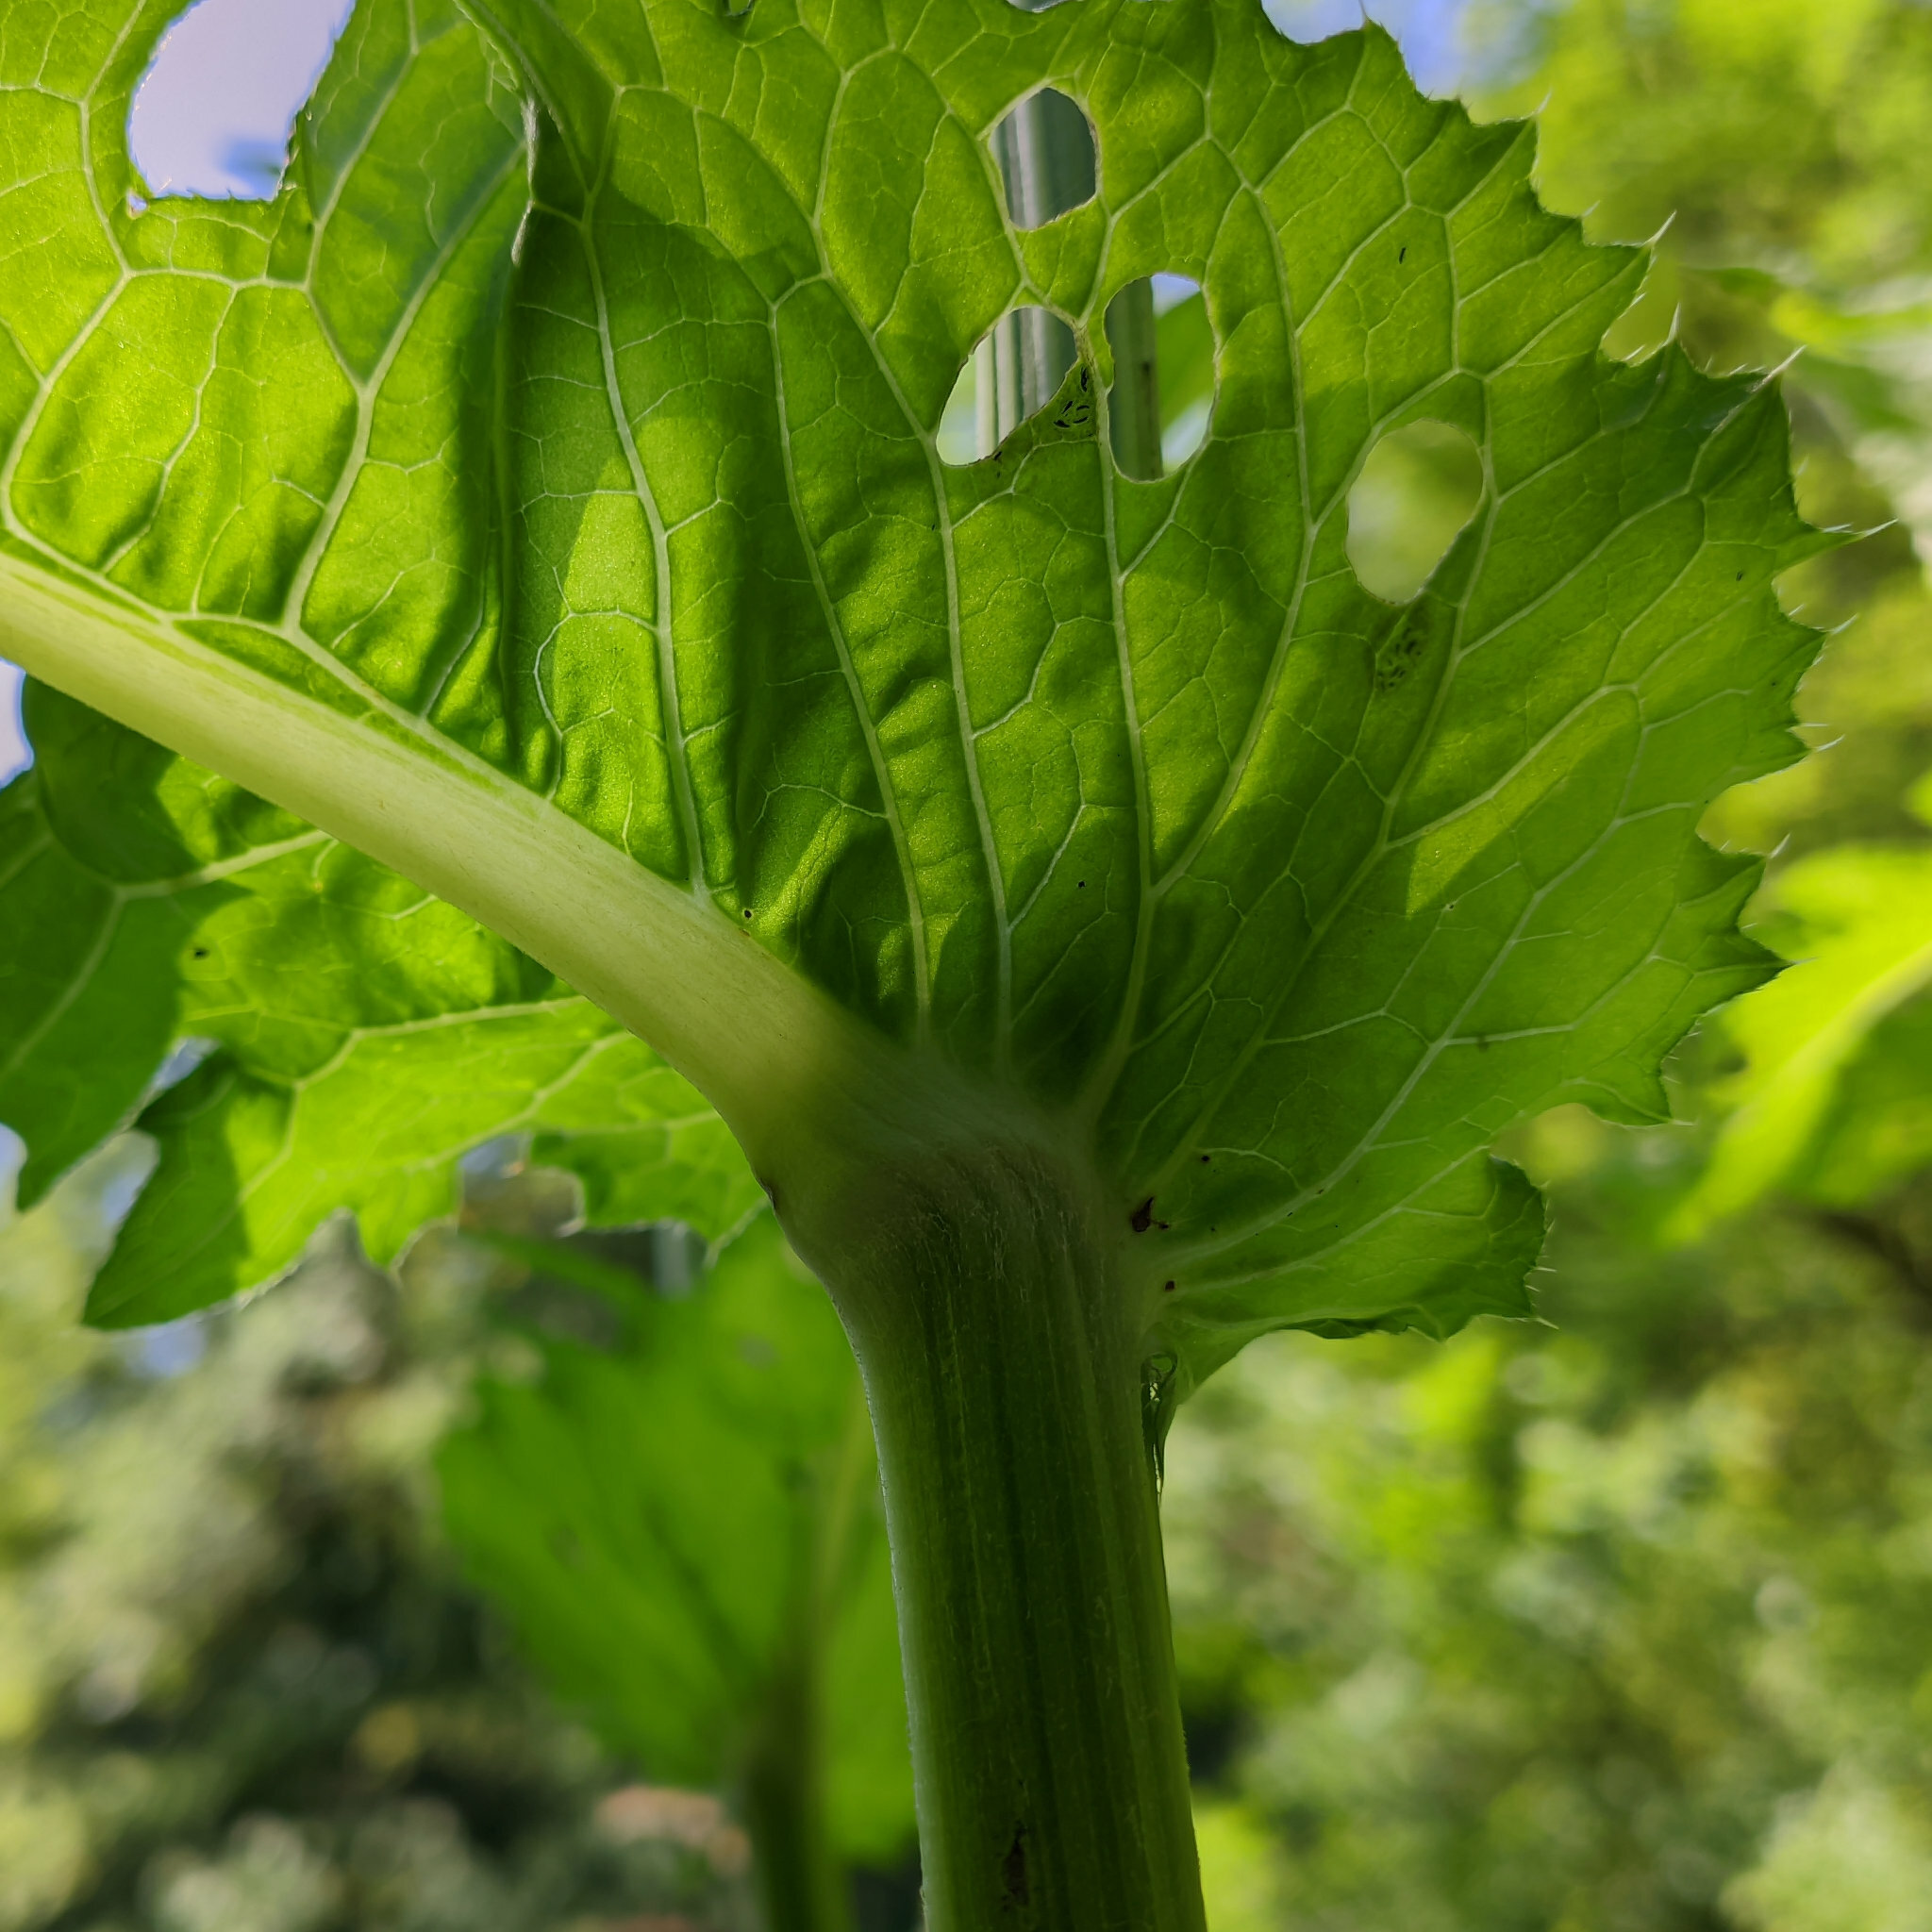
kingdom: Plantae
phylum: Tracheophyta
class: Magnoliopsida
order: Asterales
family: Asteraceae
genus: Cirsium
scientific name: Cirsium oleraceum
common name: Cabbage thistle
